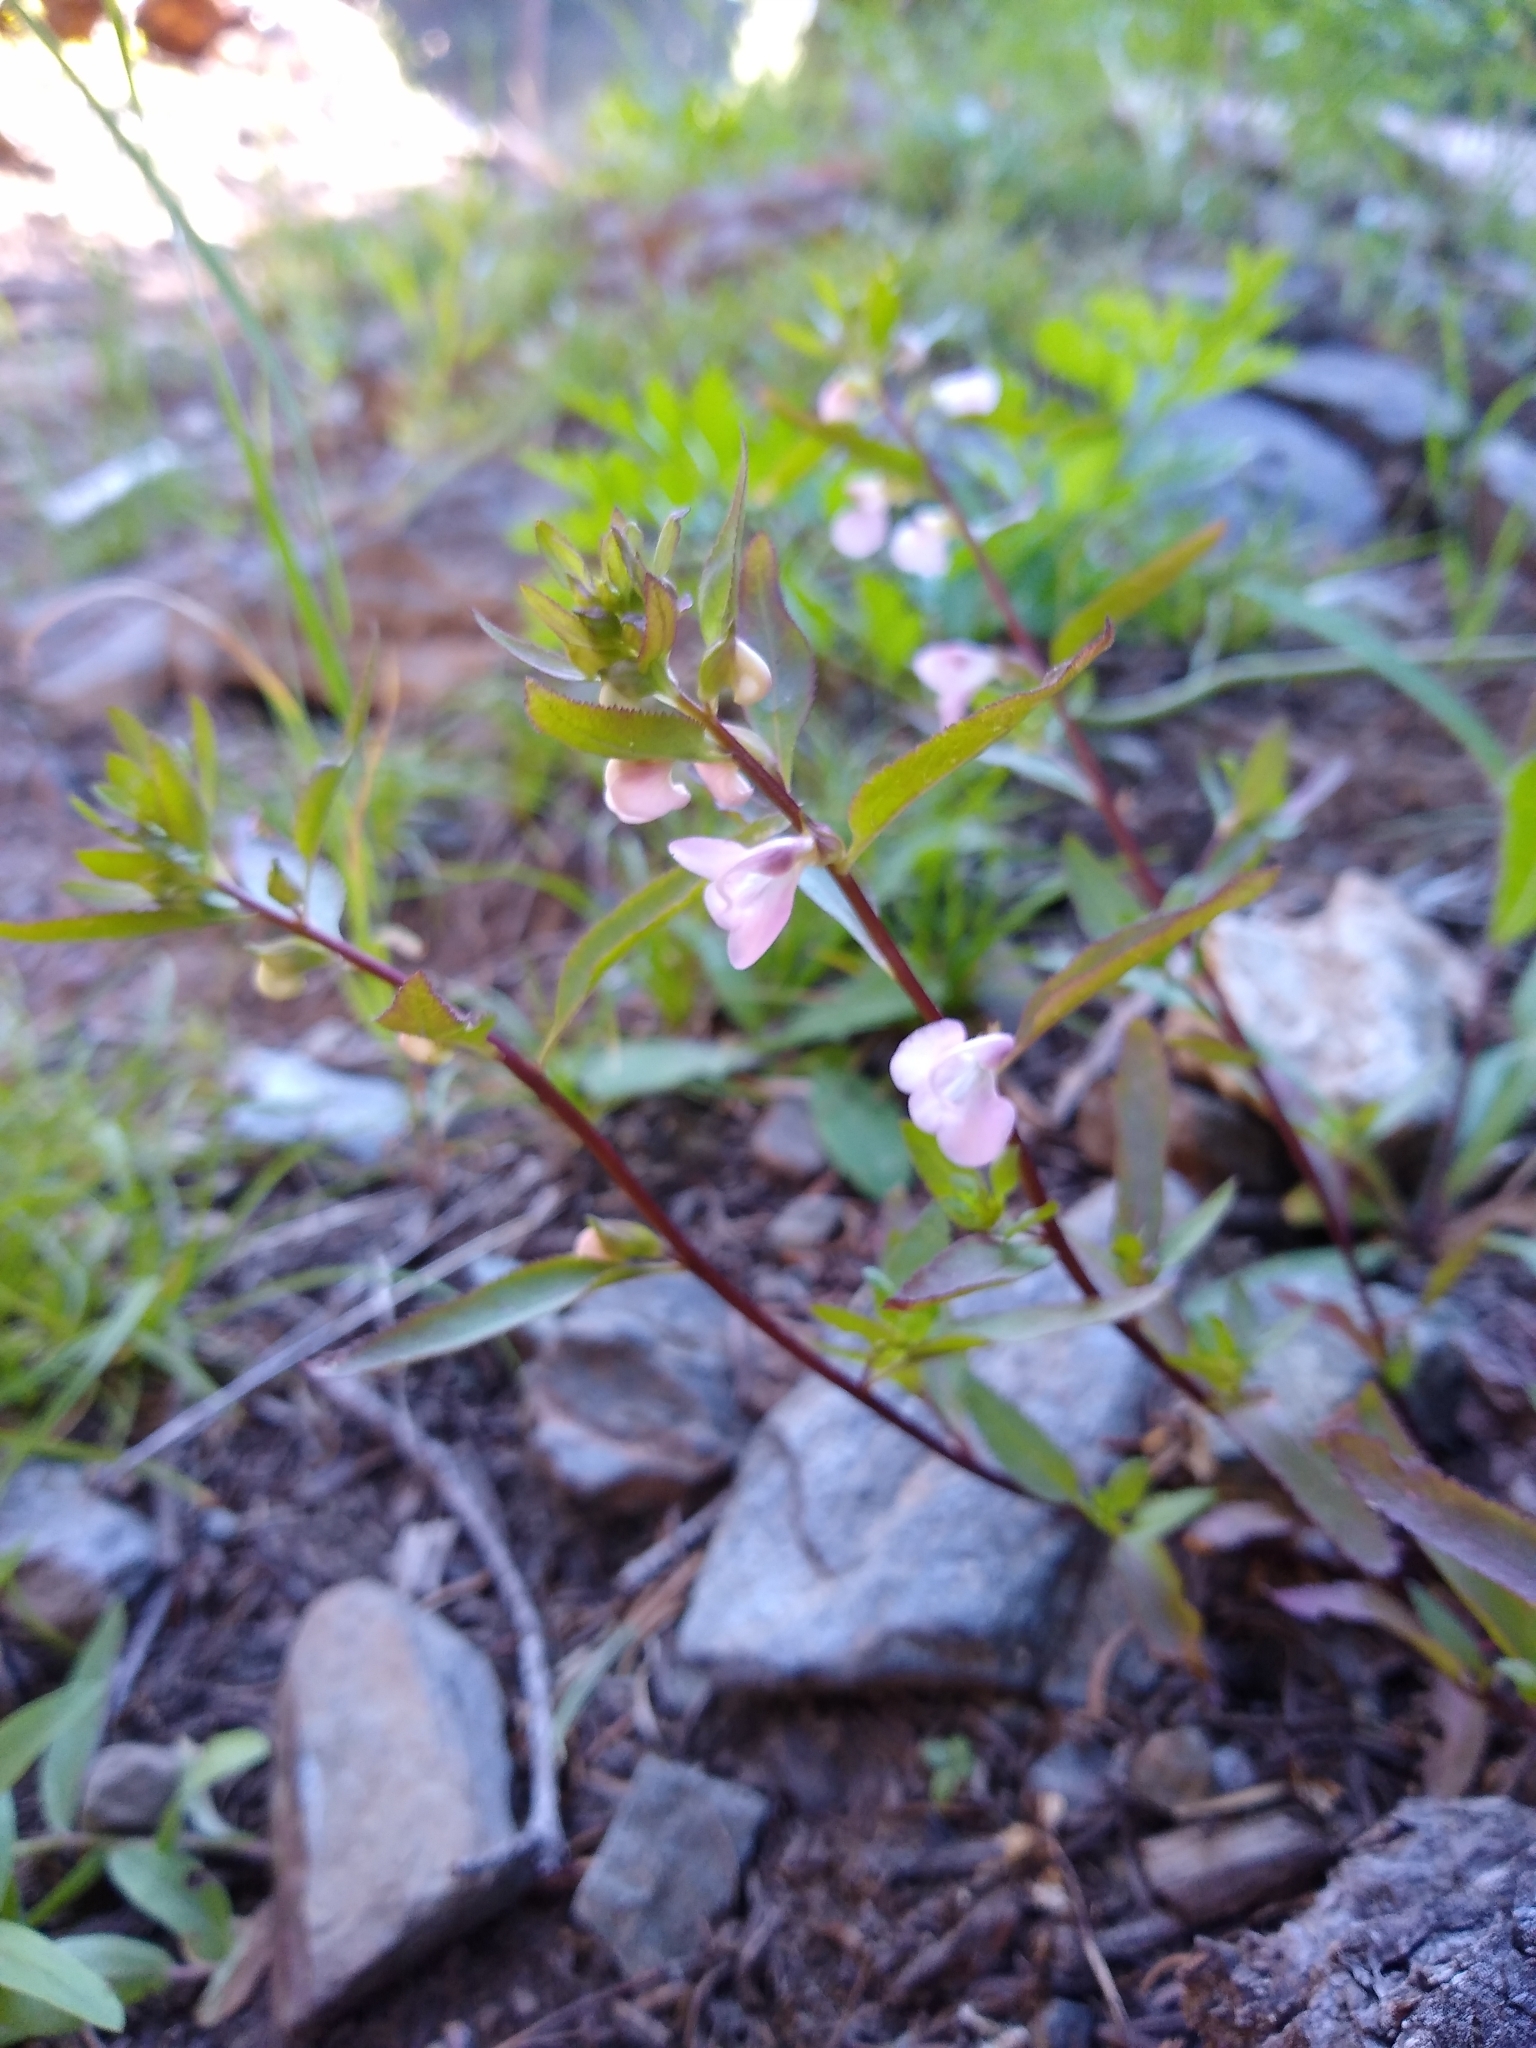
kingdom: Plantae
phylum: Tracheophyta
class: Magnoliopsida
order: Lamiales
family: Orobanchaceae
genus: Pedicularis
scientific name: Pedicularis racemosa
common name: Leafy lousewort
